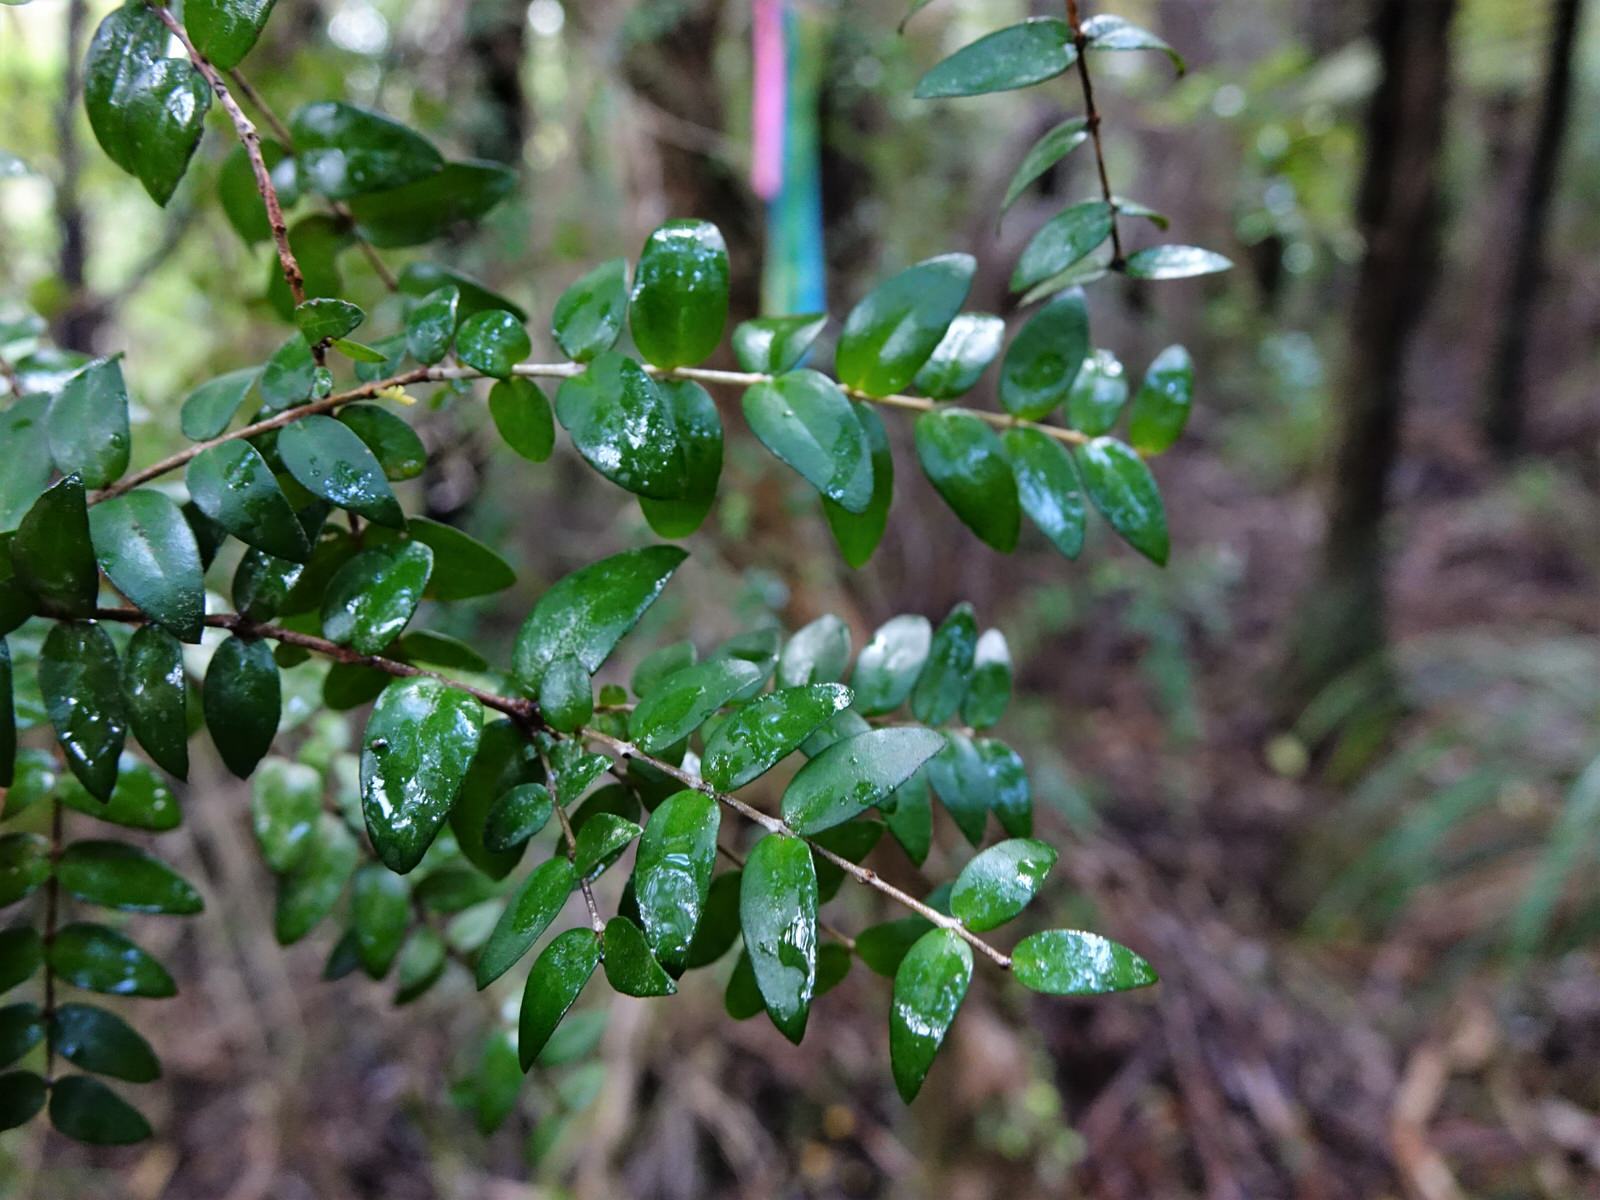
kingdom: Plantae
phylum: Tracheophyta
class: Magnoliopsida
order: Myrtales
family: Myrtaceae
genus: Metrosideros
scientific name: Metrosideros diffusa
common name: Small ratavine
